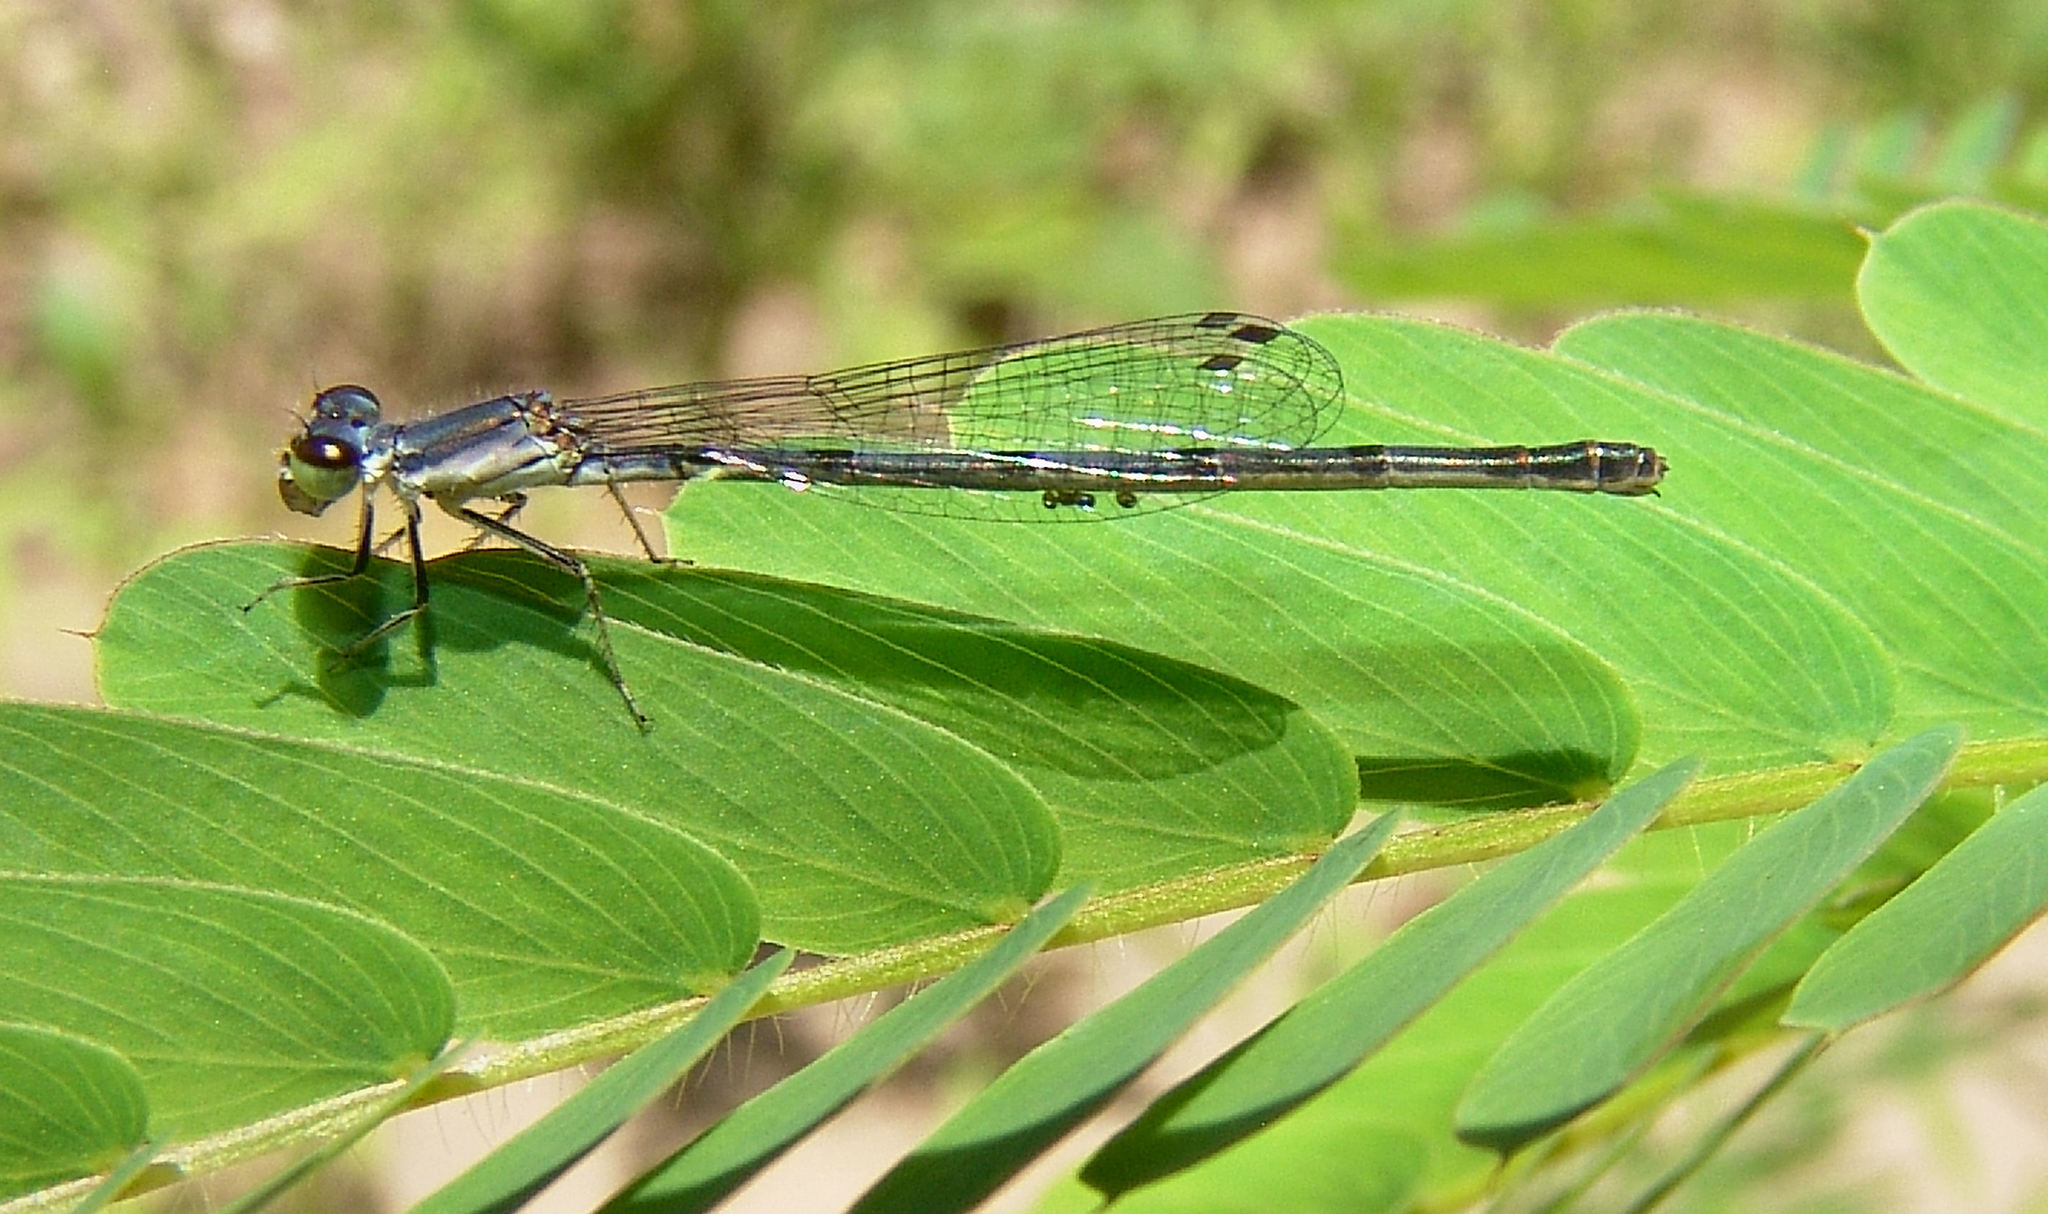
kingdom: Animalia
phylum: Arthropoda
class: Insecta
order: Odonata
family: Coenagrionidae
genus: Ischnura
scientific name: Ischnura posita
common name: Fragile forktail
